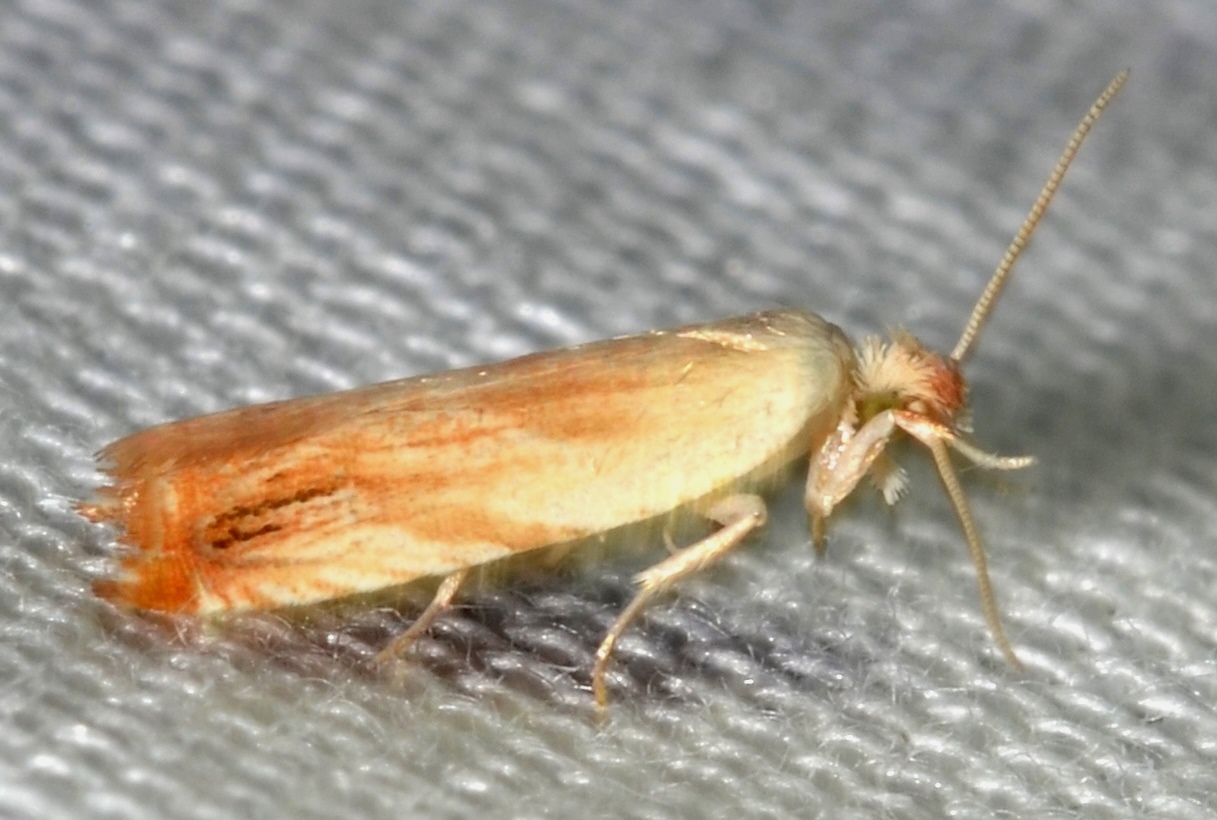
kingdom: Animalia
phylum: Arthropoda
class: Insecta
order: Lepidoptera
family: Tortricidae
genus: Ancylis
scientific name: Ancylis platanana
